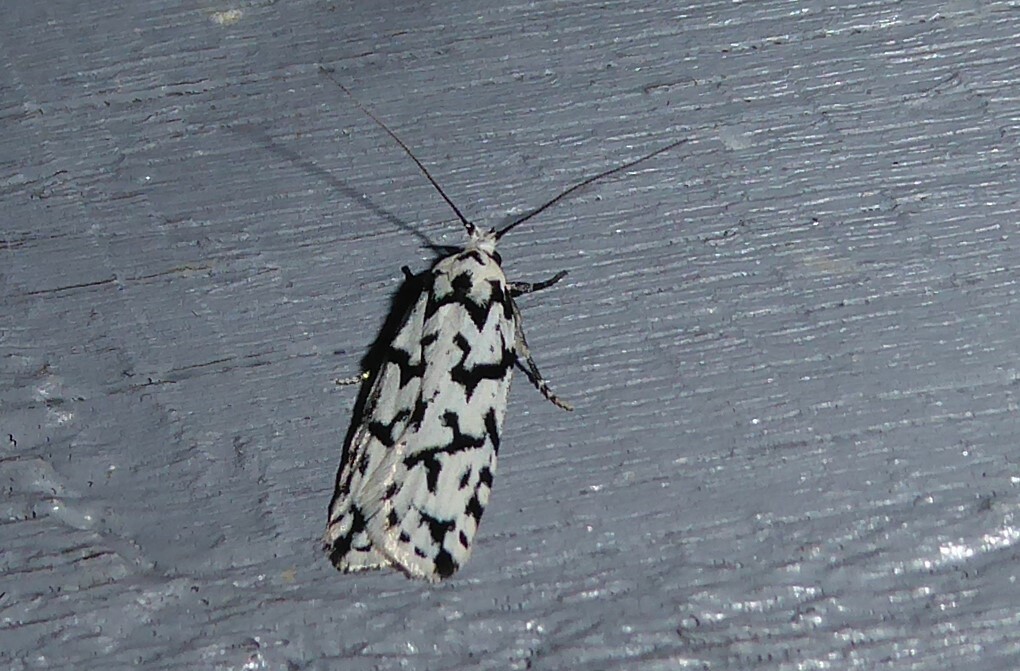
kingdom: Animalia
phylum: Arthropoda
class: Insecta
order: Lepidoptera
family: Oecophoridae
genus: Izatha
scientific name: Izatha katadiktya
